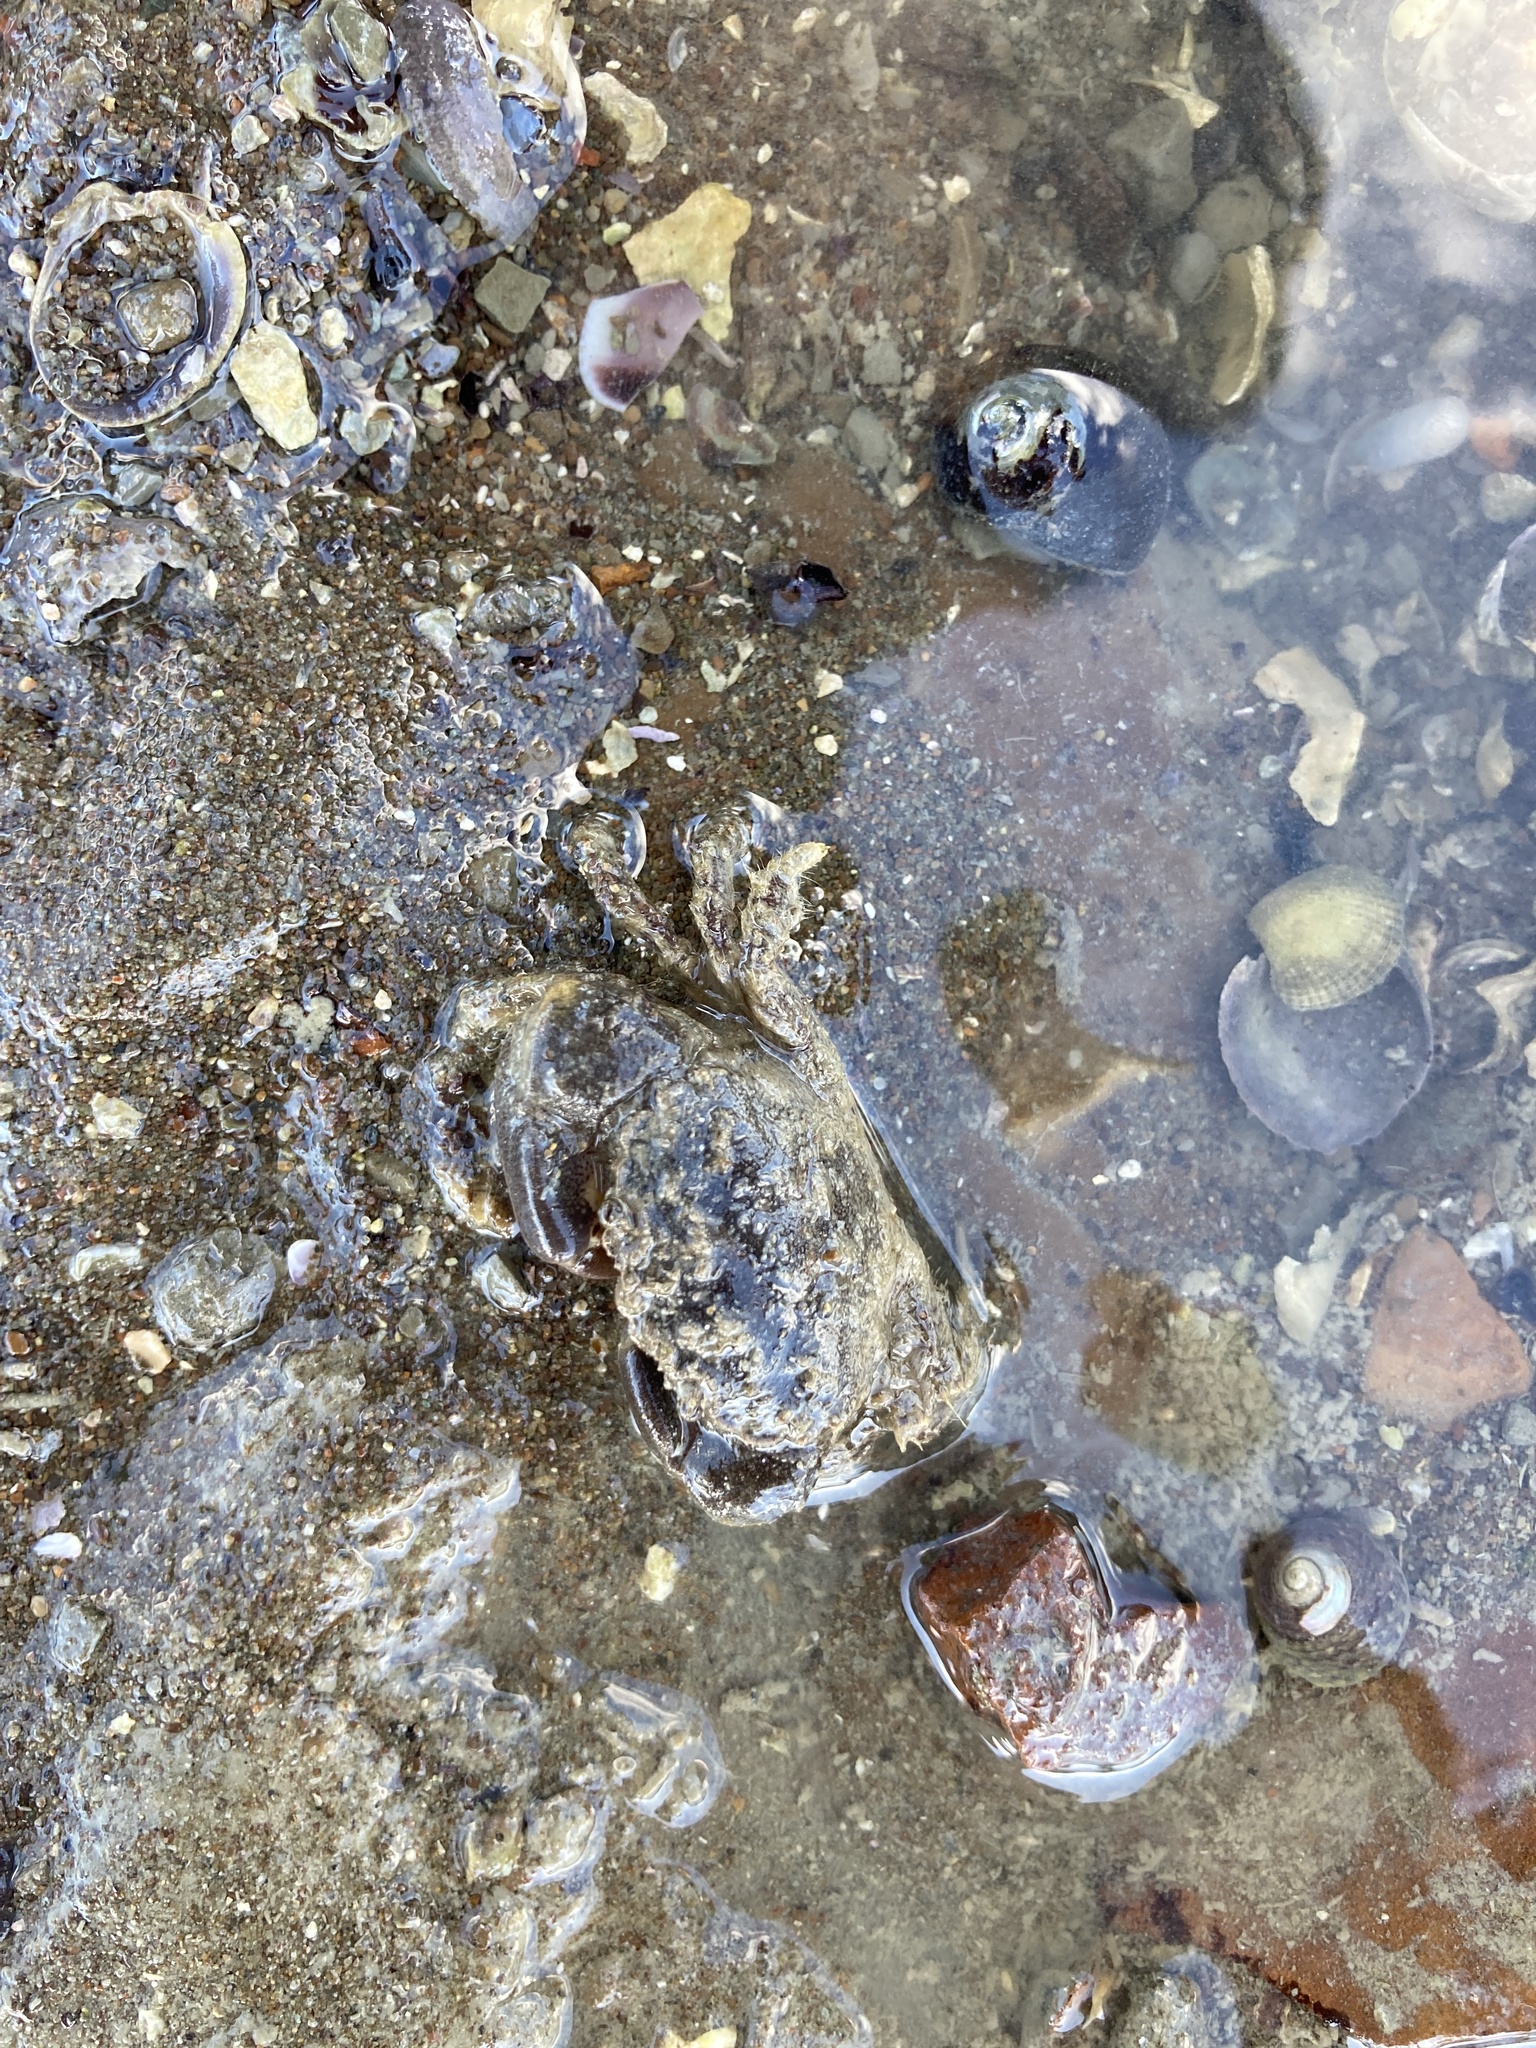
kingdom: Animalia
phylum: Arthropoda
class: Malacostraca
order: Decapoda
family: Pilumnidae
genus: Pilumnopeus
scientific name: Pilumnopeus serratifrons
